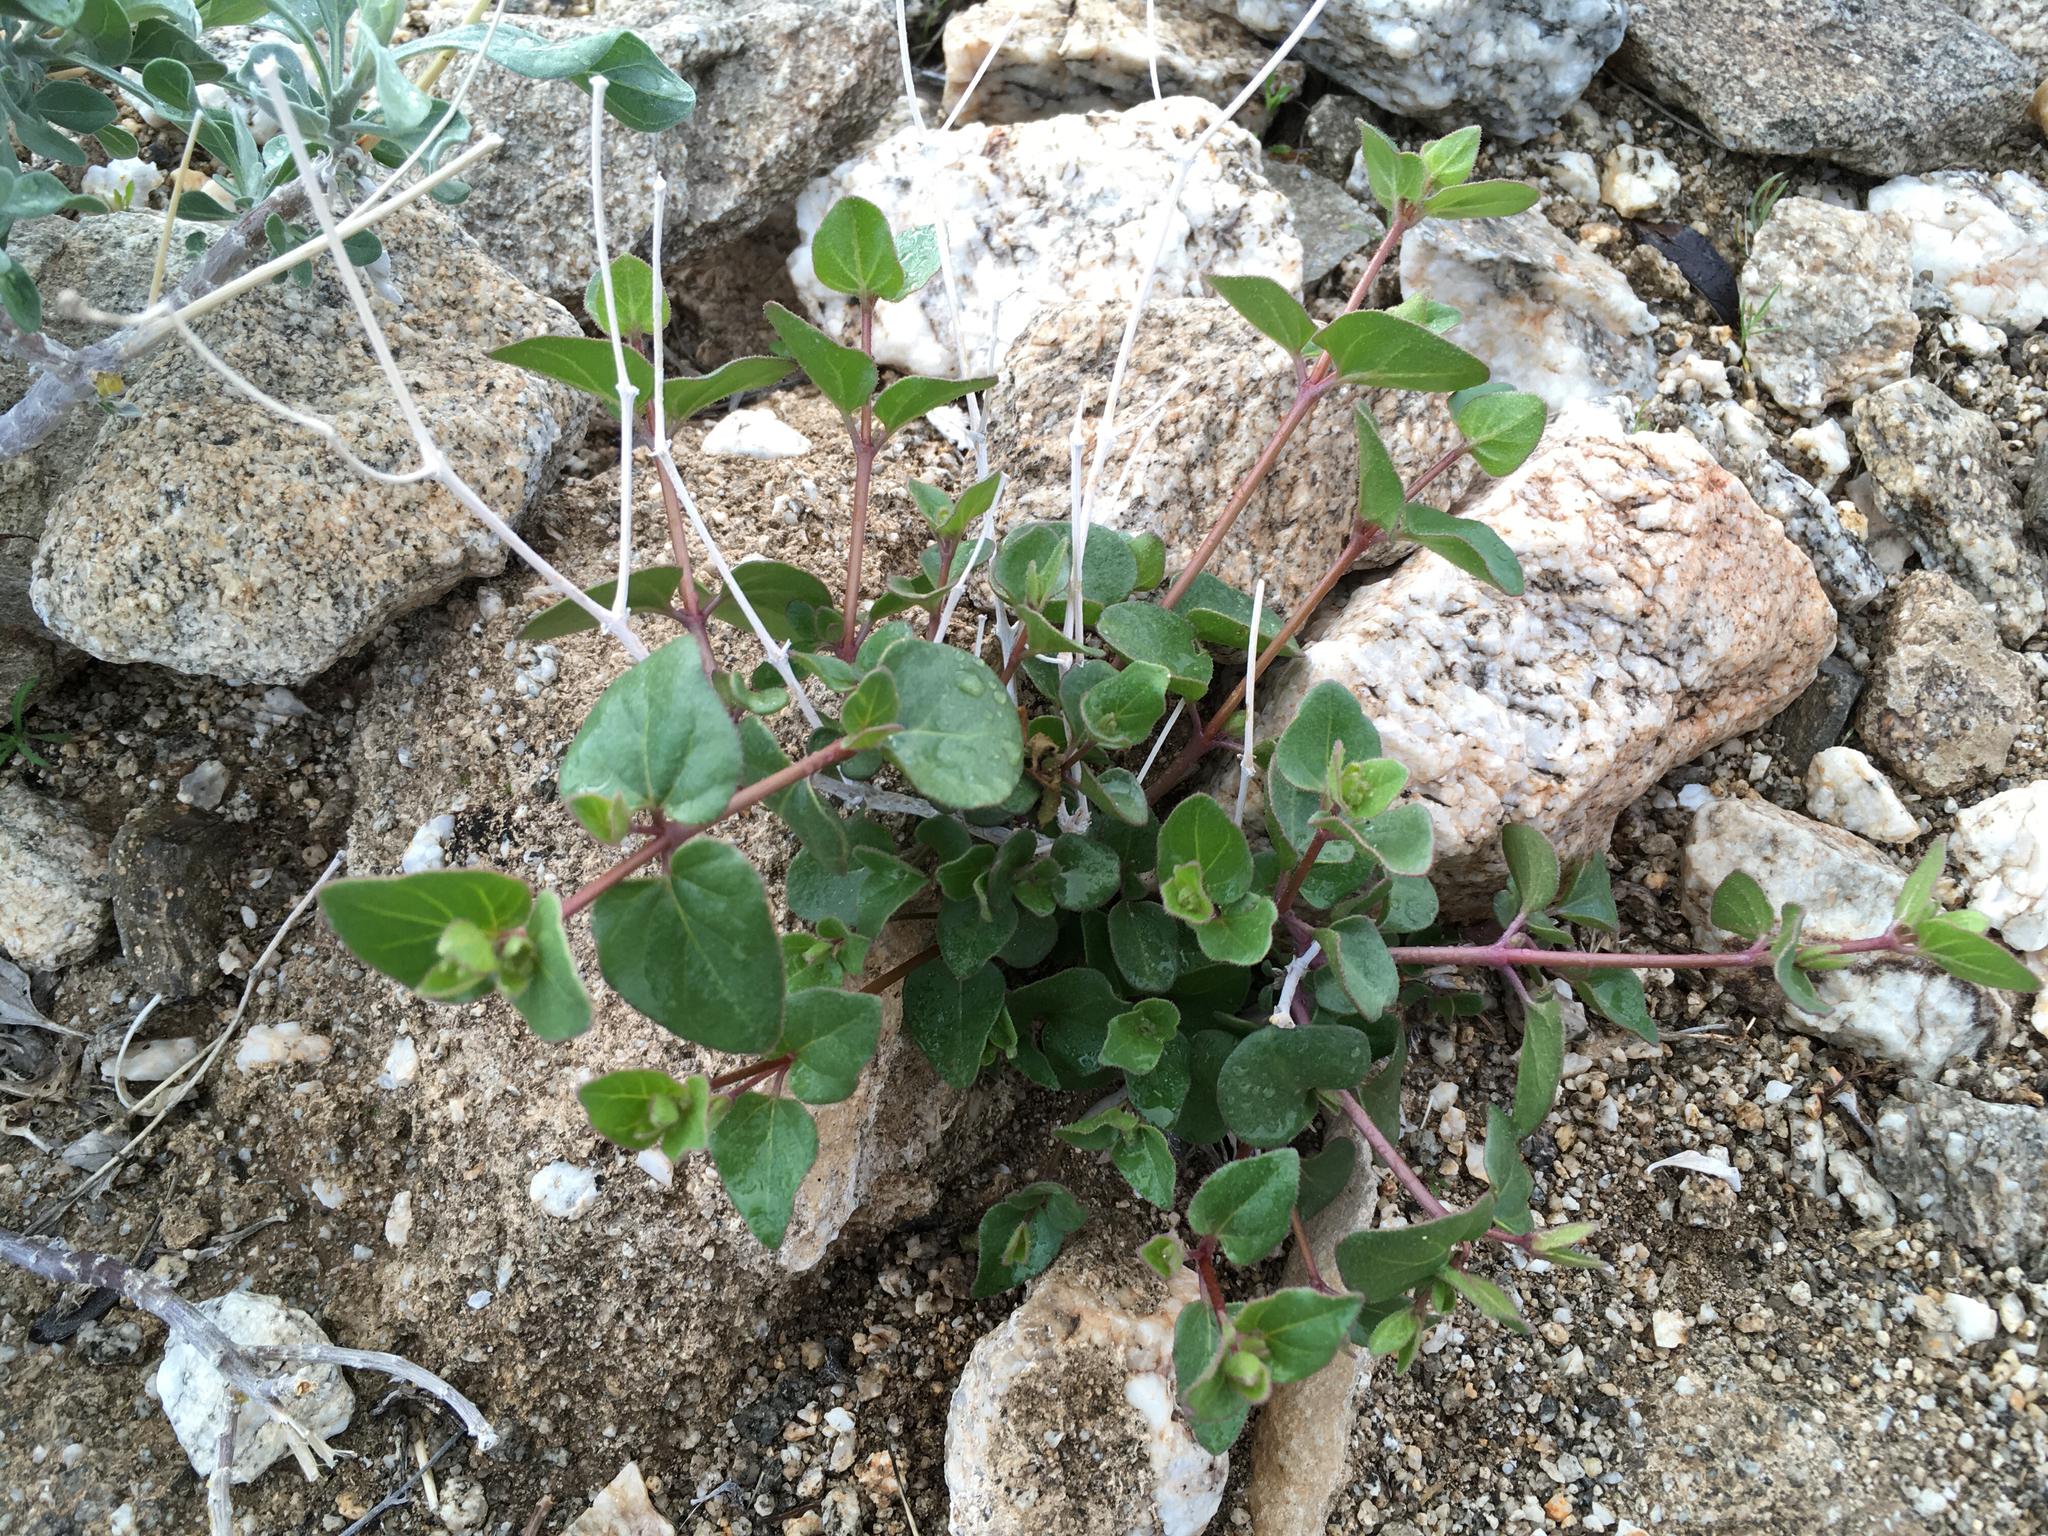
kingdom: Plantae
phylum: Tracheophyta
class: Magnoliopsida
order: Caryophyllales
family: Nyctaginaceae
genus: Mirabilis
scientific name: Mirabilis laevis
